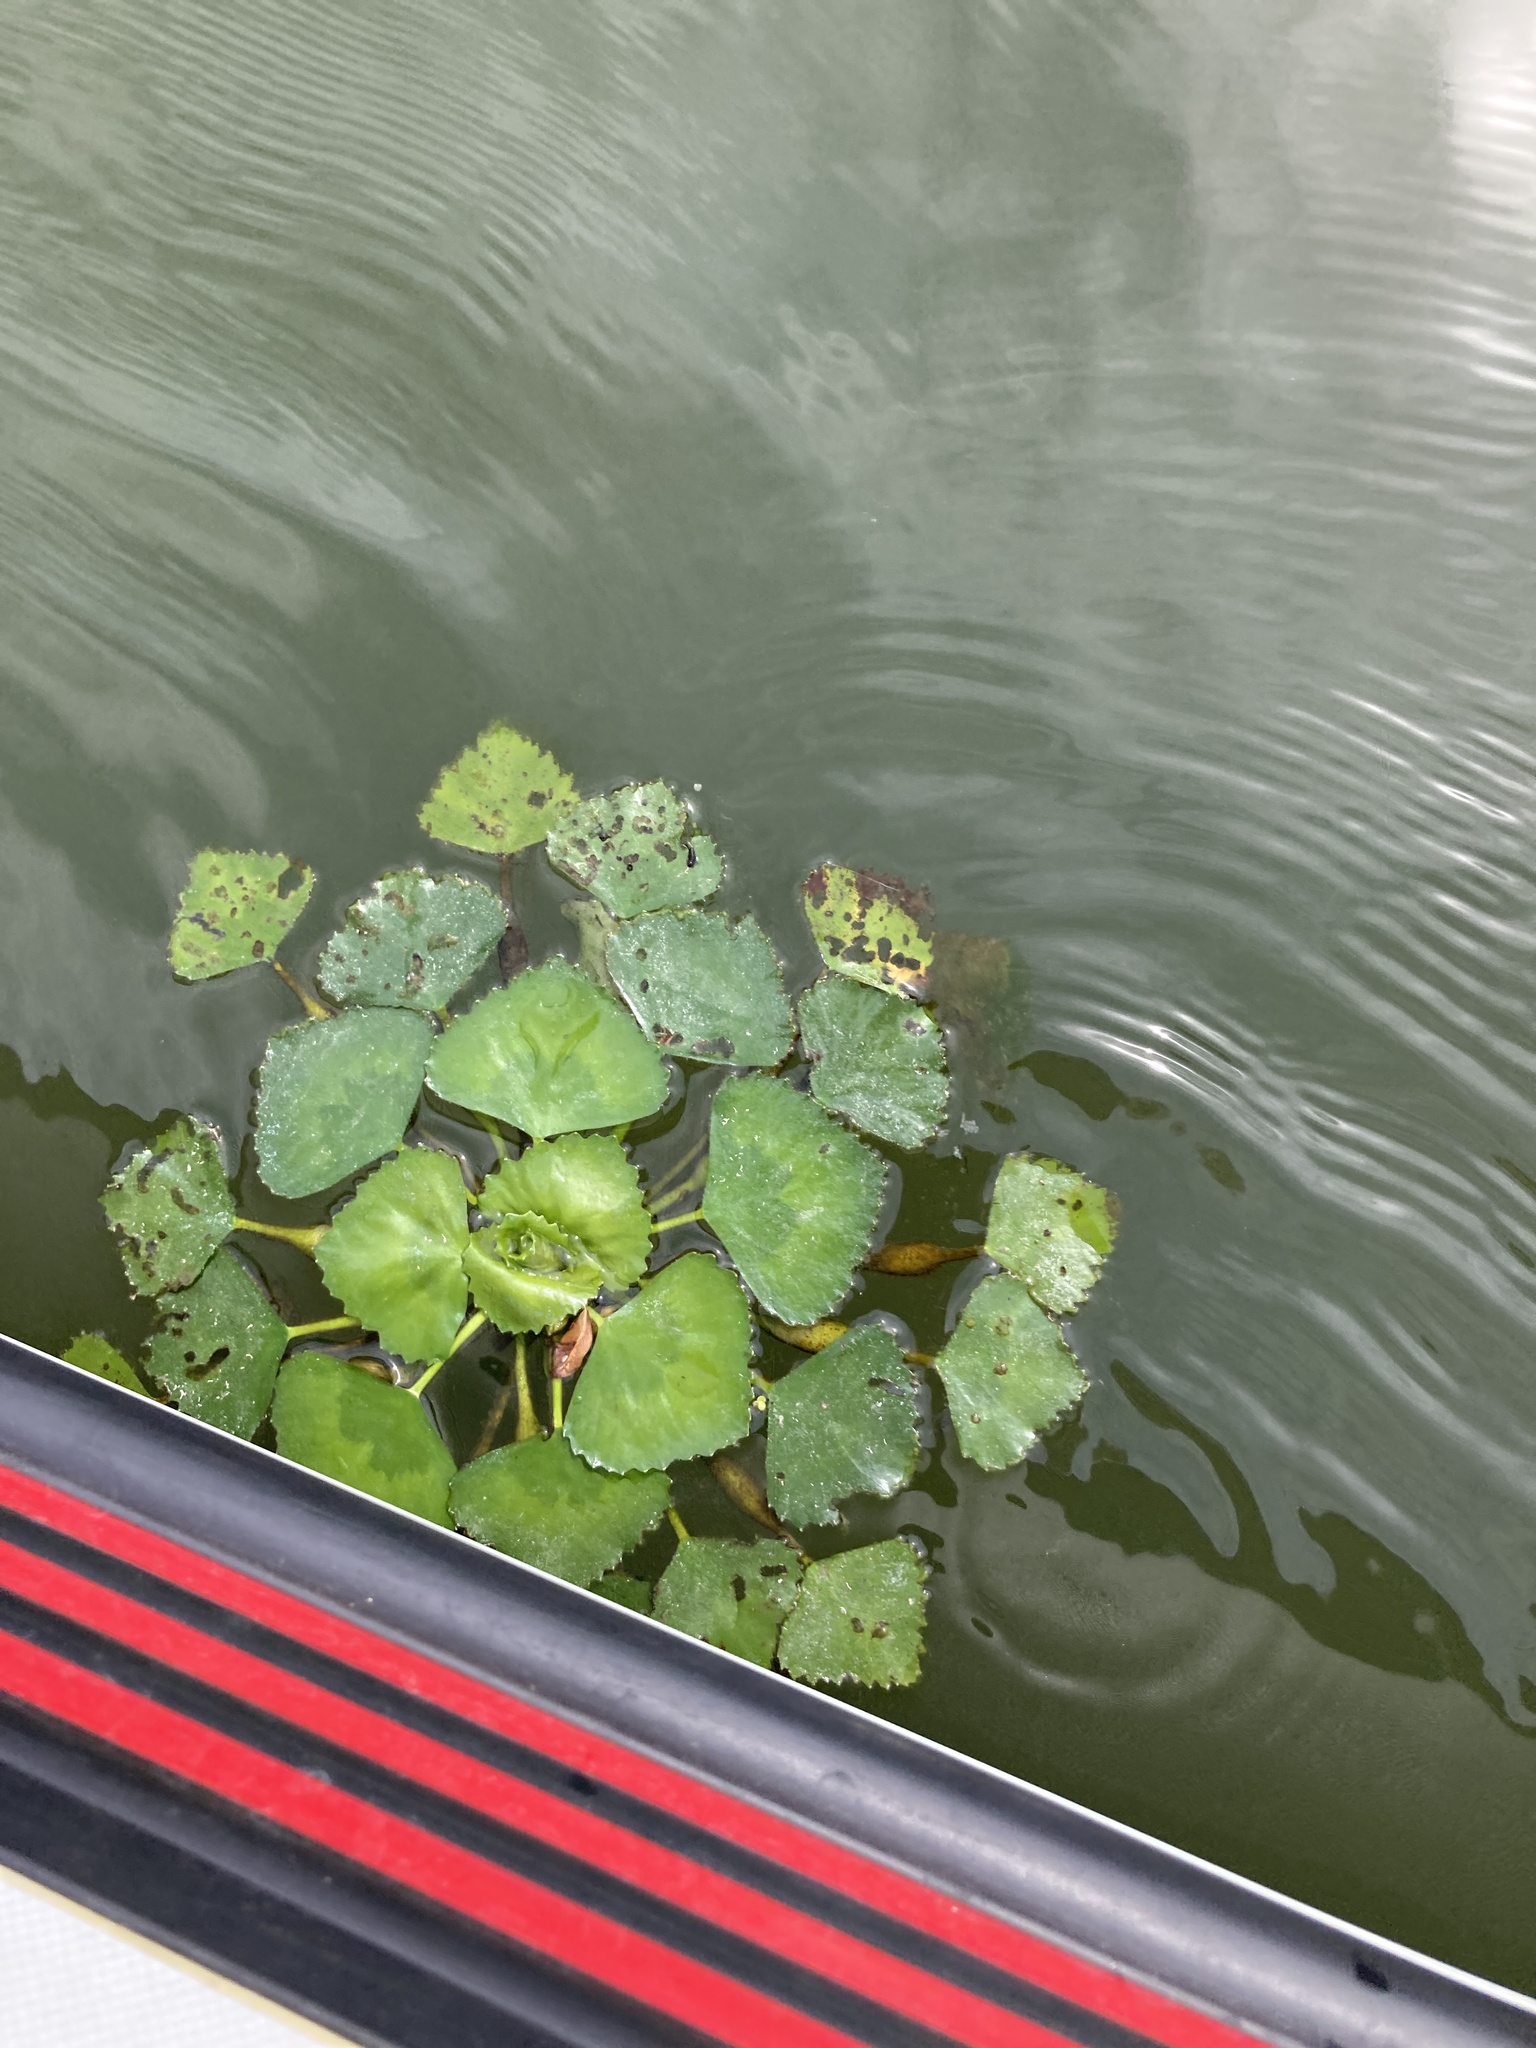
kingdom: Plantae
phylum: Tracheophyta
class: Magnoliopsida
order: Myrtales
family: Lythraceae
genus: Trapa
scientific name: Trapa natans
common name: Water chestnut
